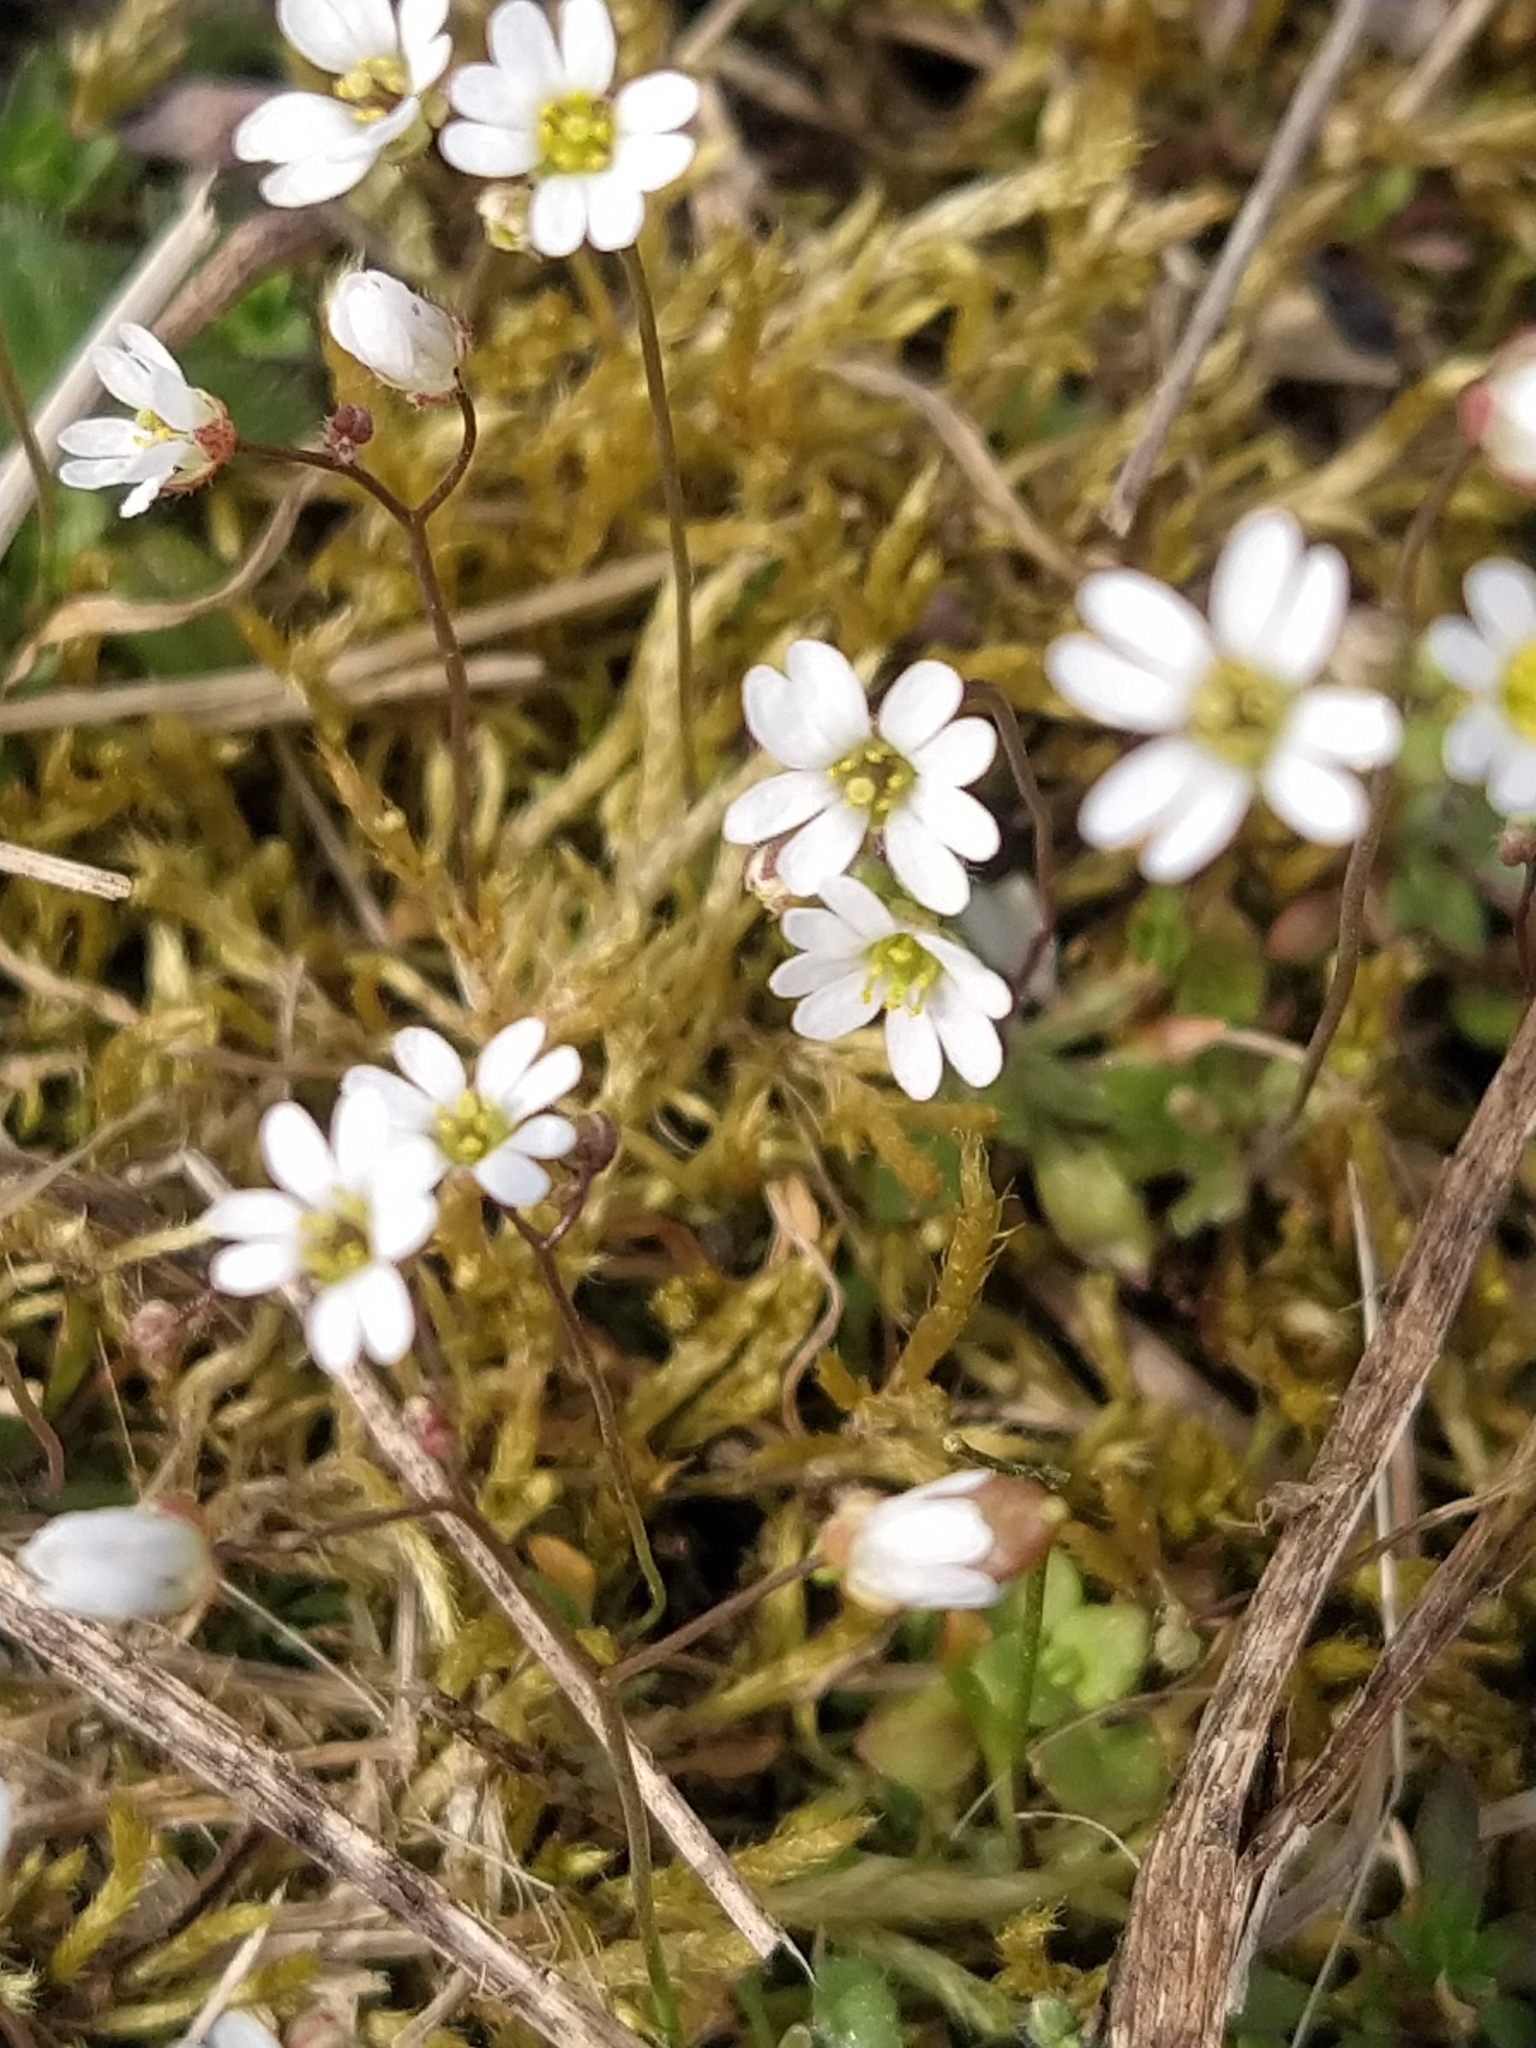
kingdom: Plantae
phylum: Tracheophyta
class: Magnoliopsida
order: Brassicales
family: Brassicaceae
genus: Draba
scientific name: Draba verna
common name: Spring draba
